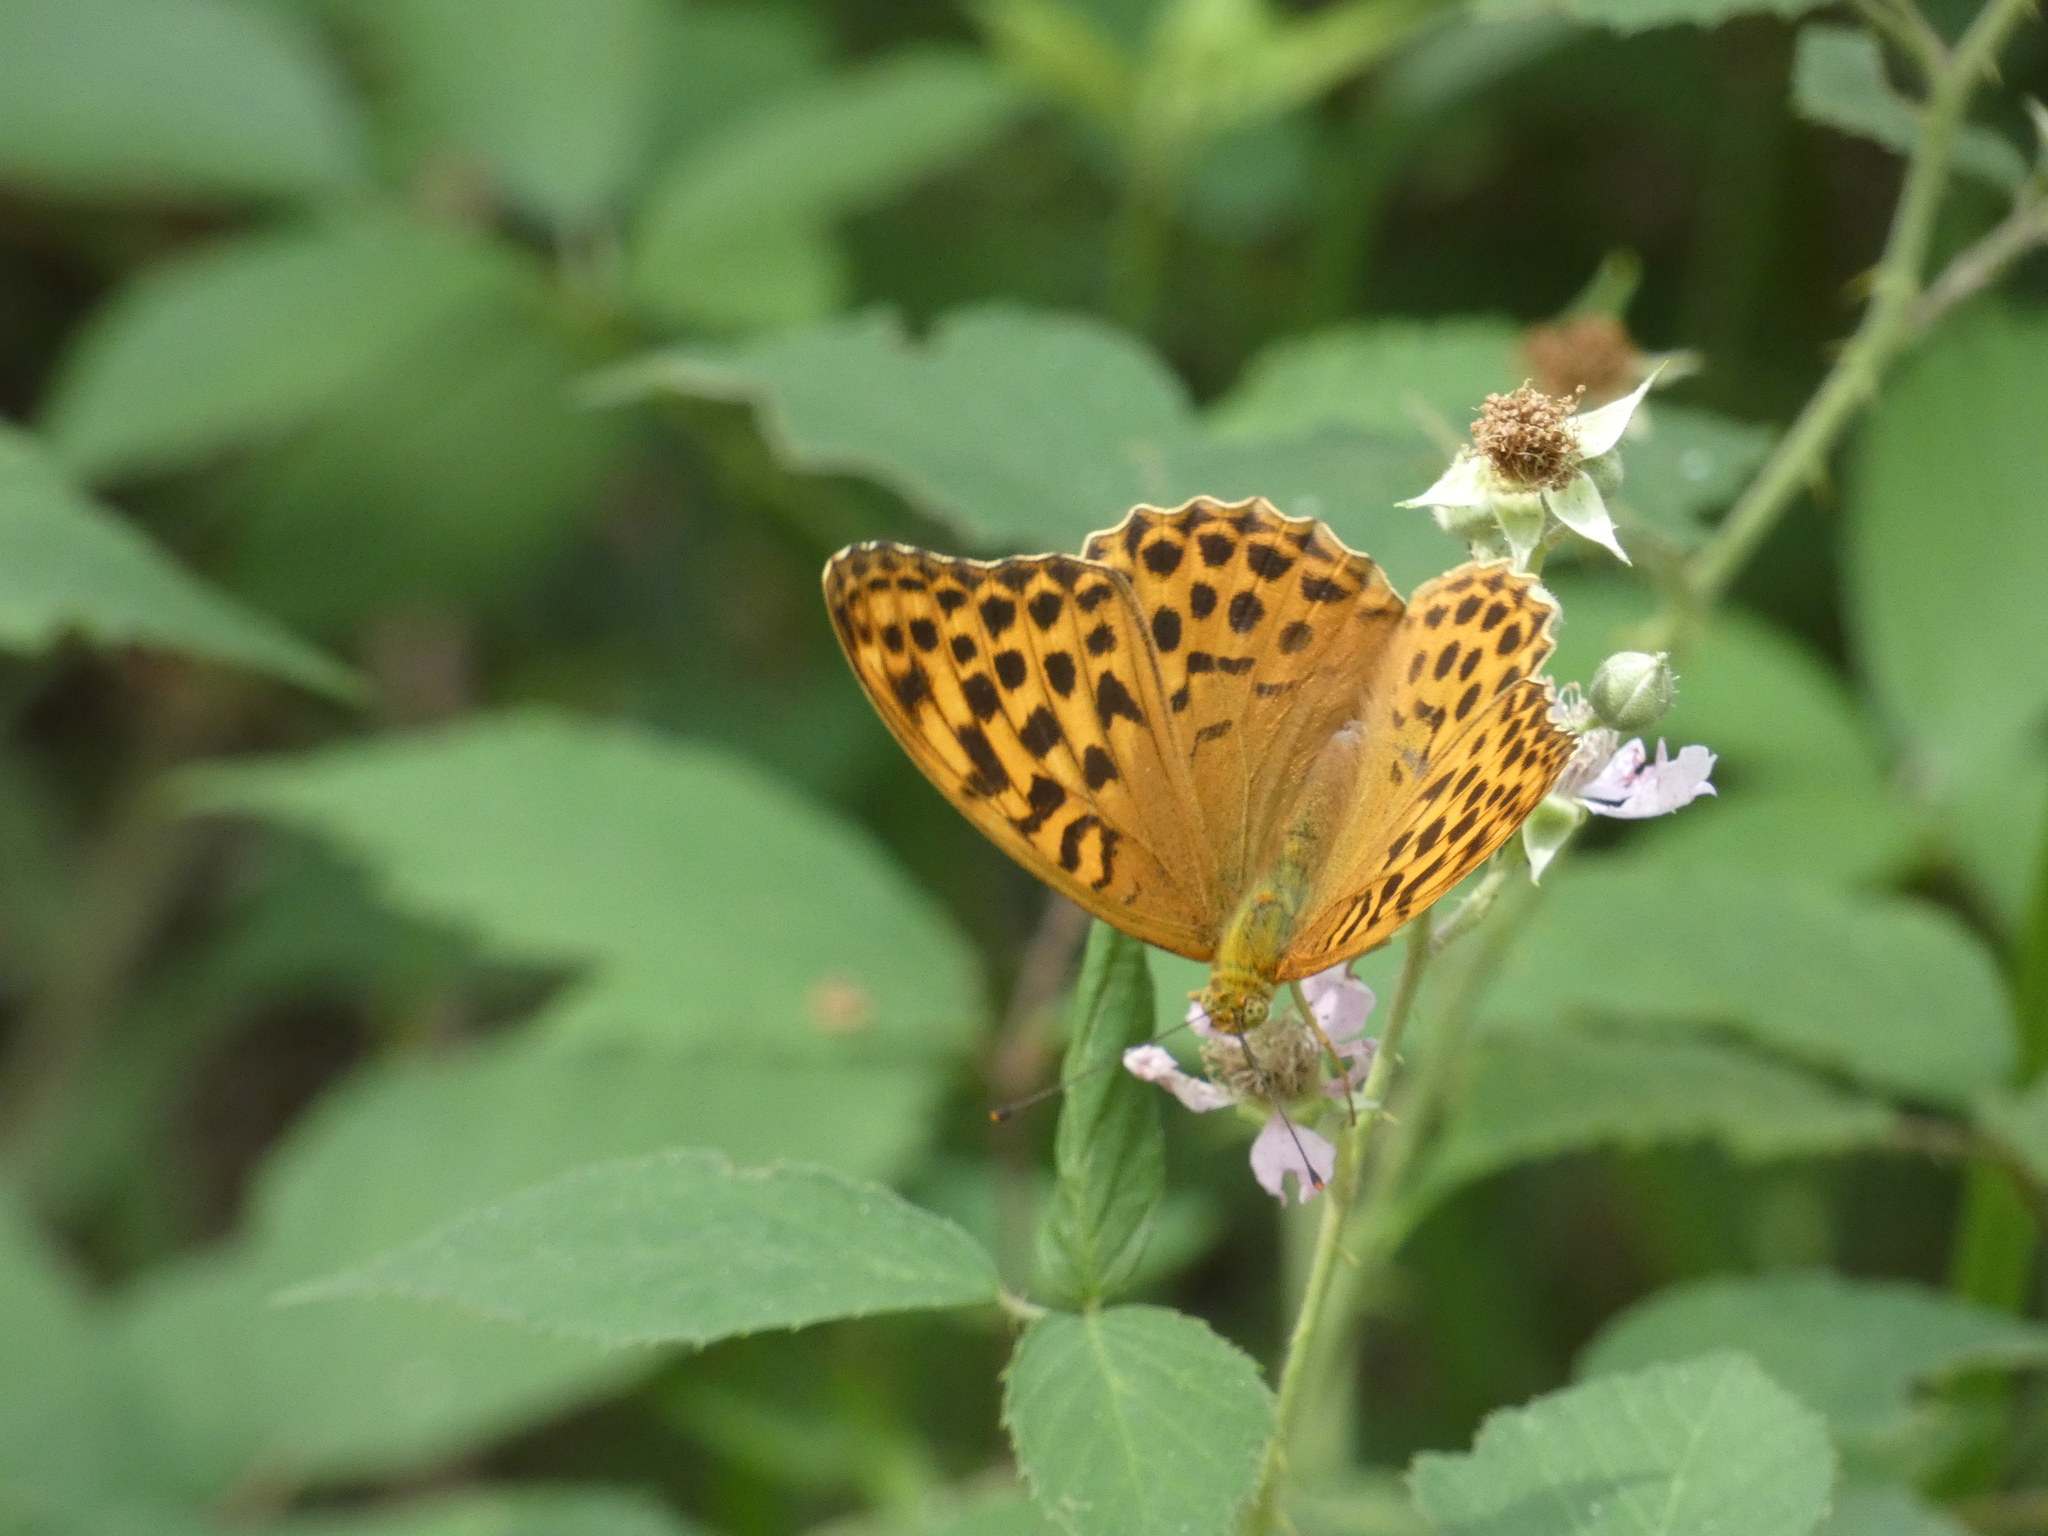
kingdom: Animalia
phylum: Arthropoda
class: Insecta
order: Lepidoptera
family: Nymphalidae
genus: Argynnis
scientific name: Argynnis paphia
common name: Silver-washed fritillary
